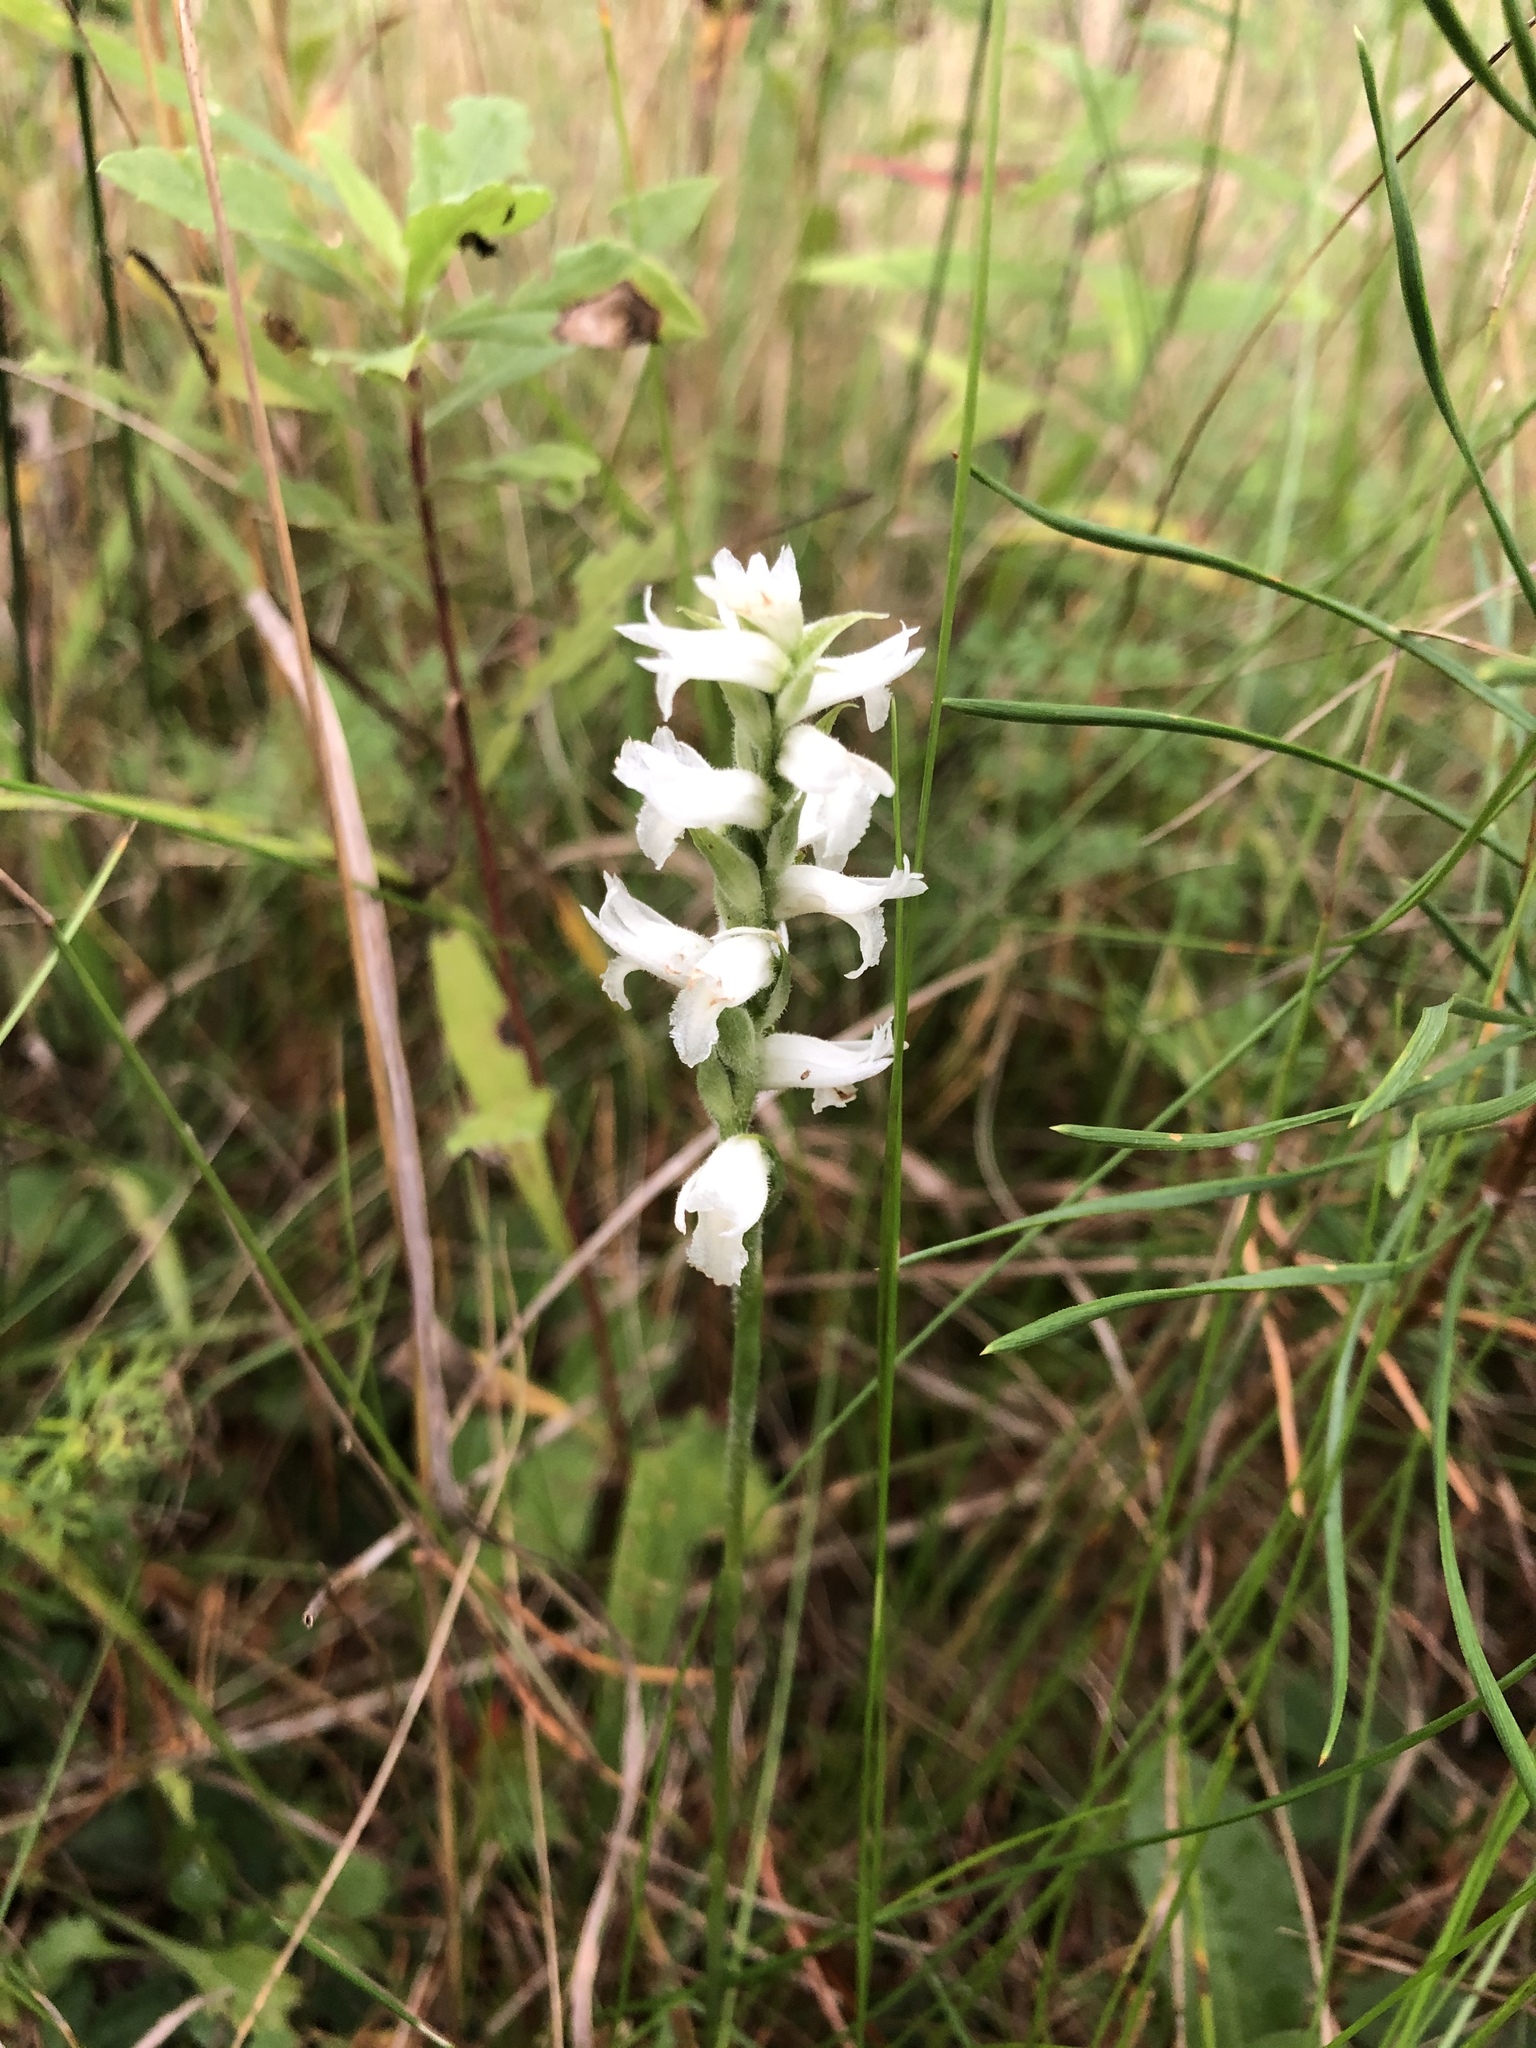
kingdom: Plantae
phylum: Tracheophyta
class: Liliopsida
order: Asparagales
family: Orchidaceae
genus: Spiranthes
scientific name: Spiranthes incurva
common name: Sphinx ladies'-tresses
